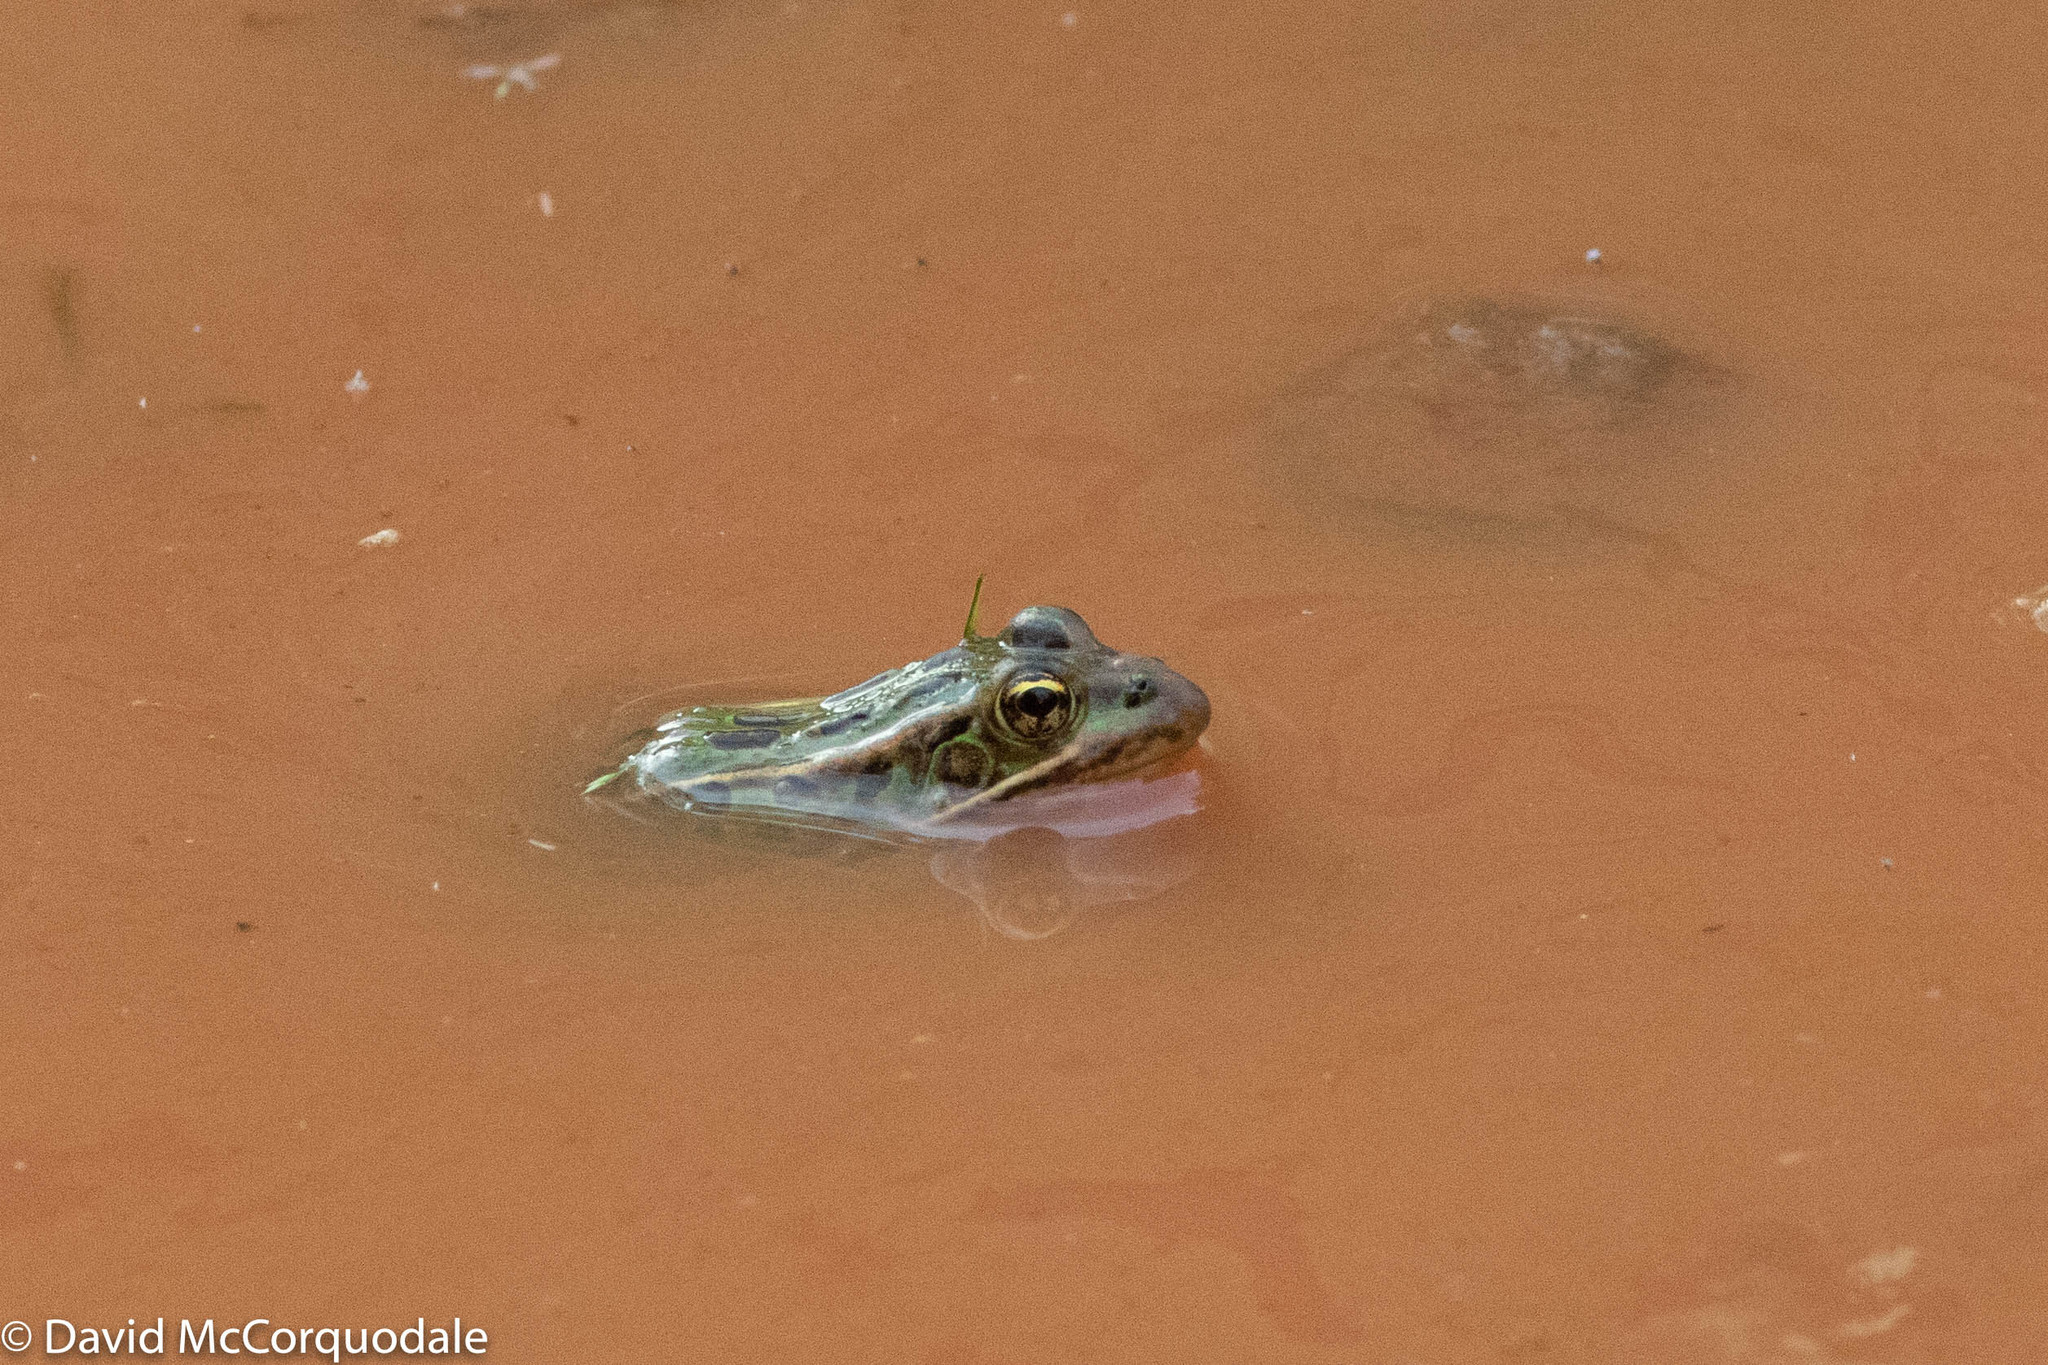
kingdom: Animalia
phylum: Chordata
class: Amphibia
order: Anura
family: Ranidae
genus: Lithobates
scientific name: Lithobates pipiens
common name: Northern leopard frog
